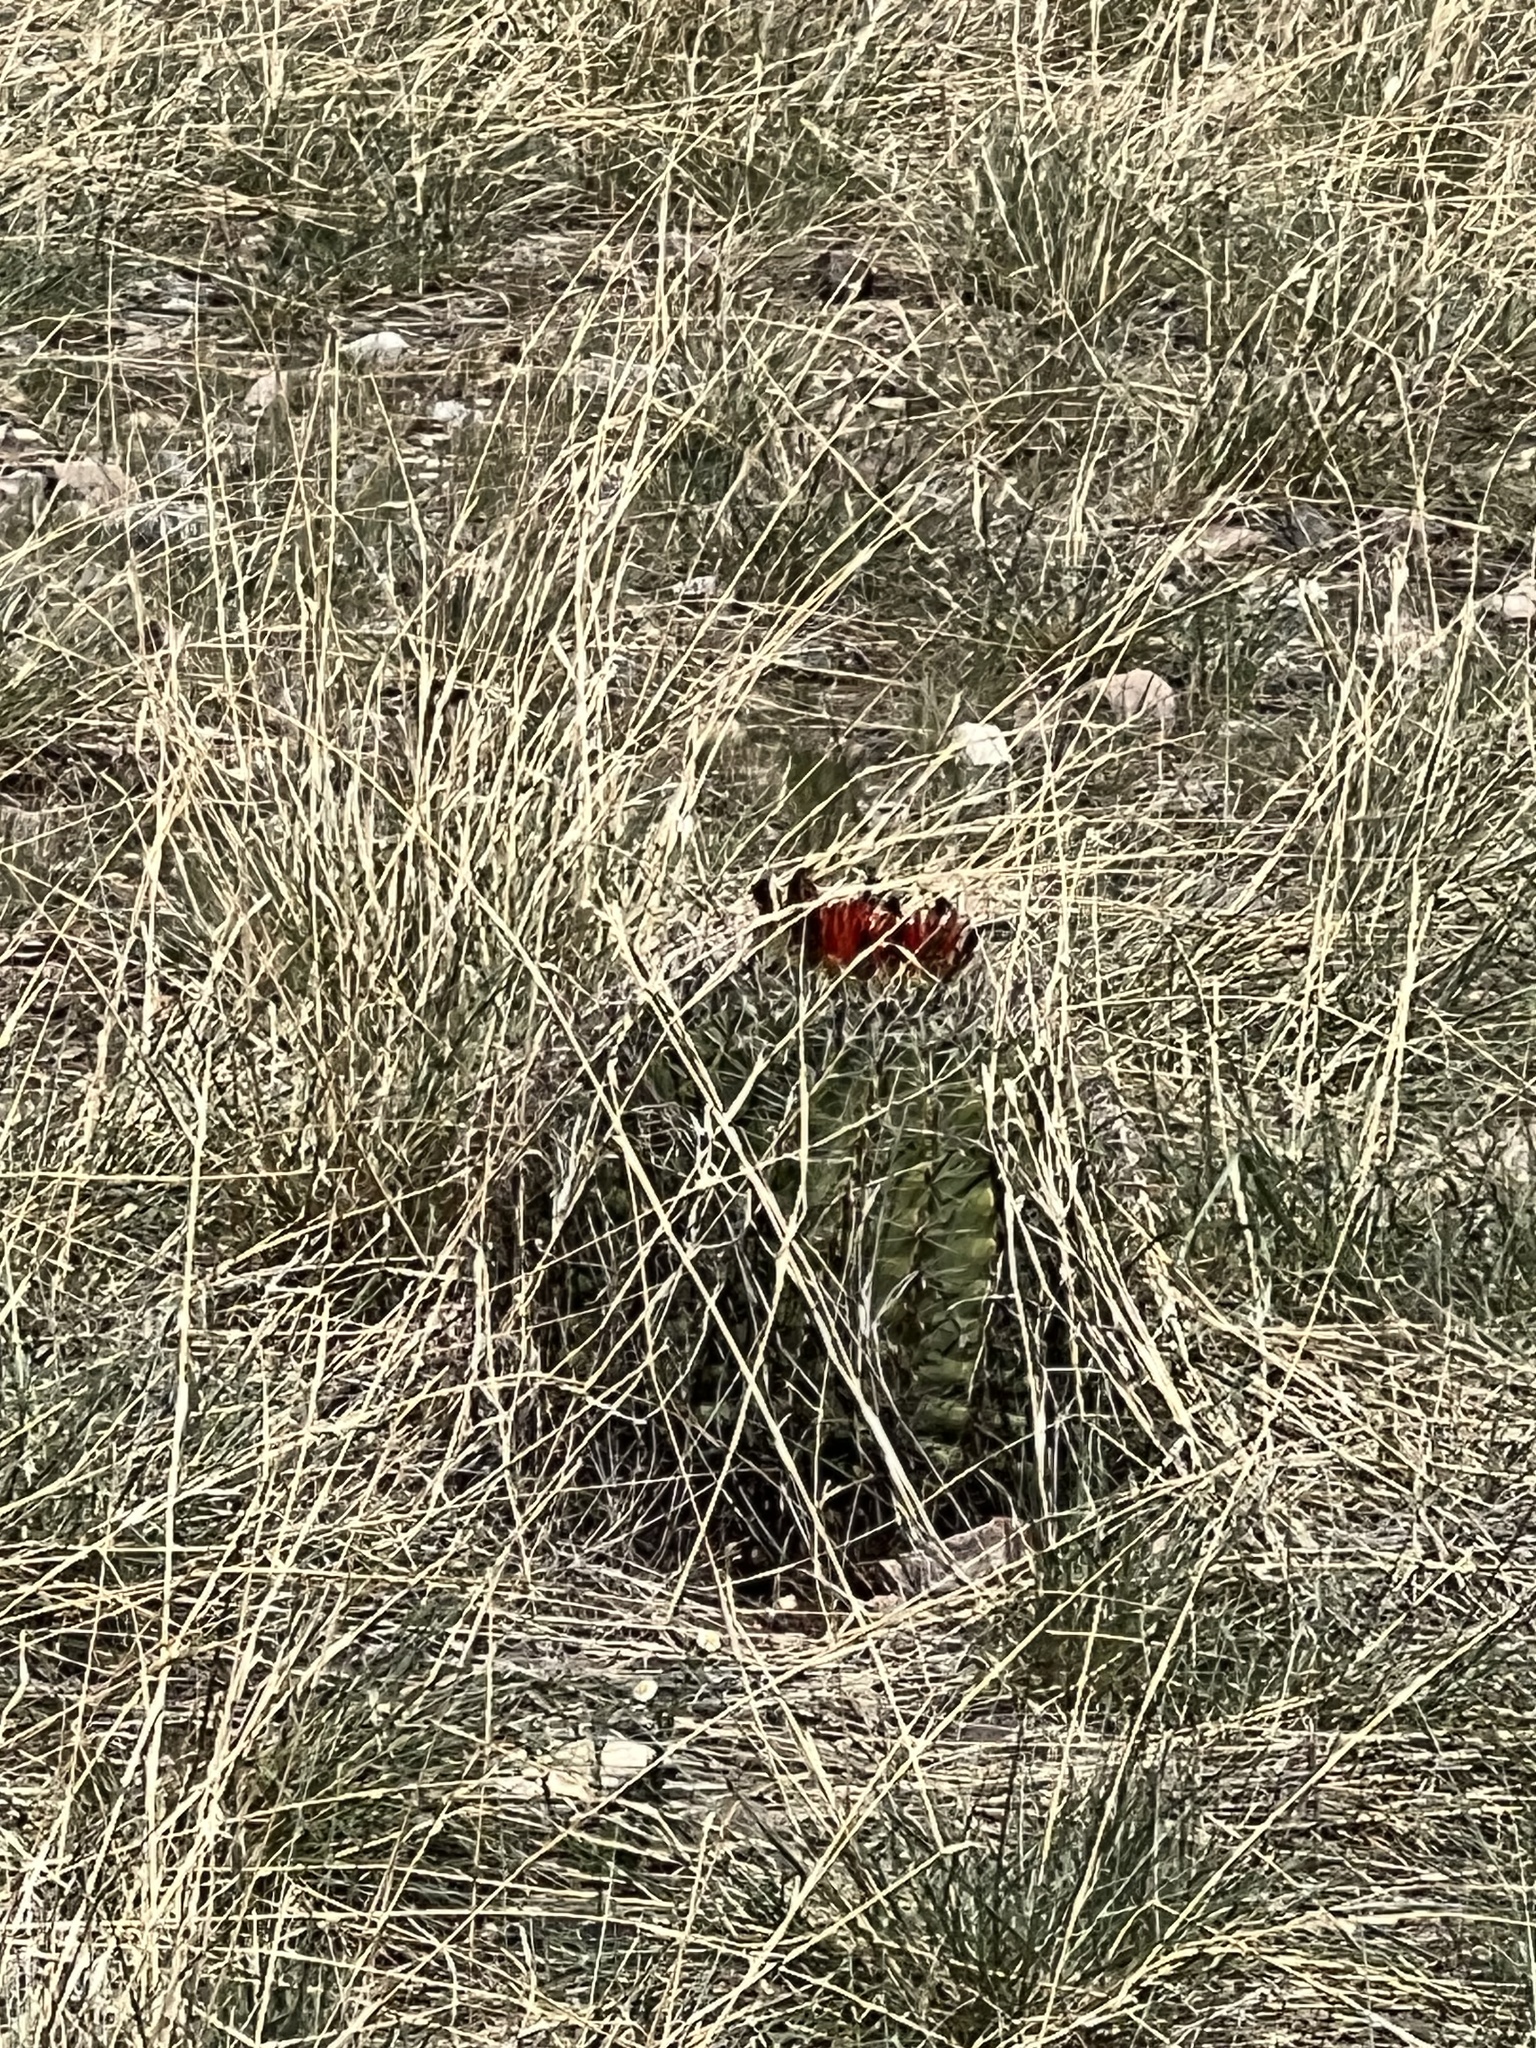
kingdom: Plantae
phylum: Tracheophyta
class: Magnoliopsida
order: Caryophyllales
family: Cactaceae
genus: Ferocactus
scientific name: Ferocactus wislizeni
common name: Candy barrel cactus
